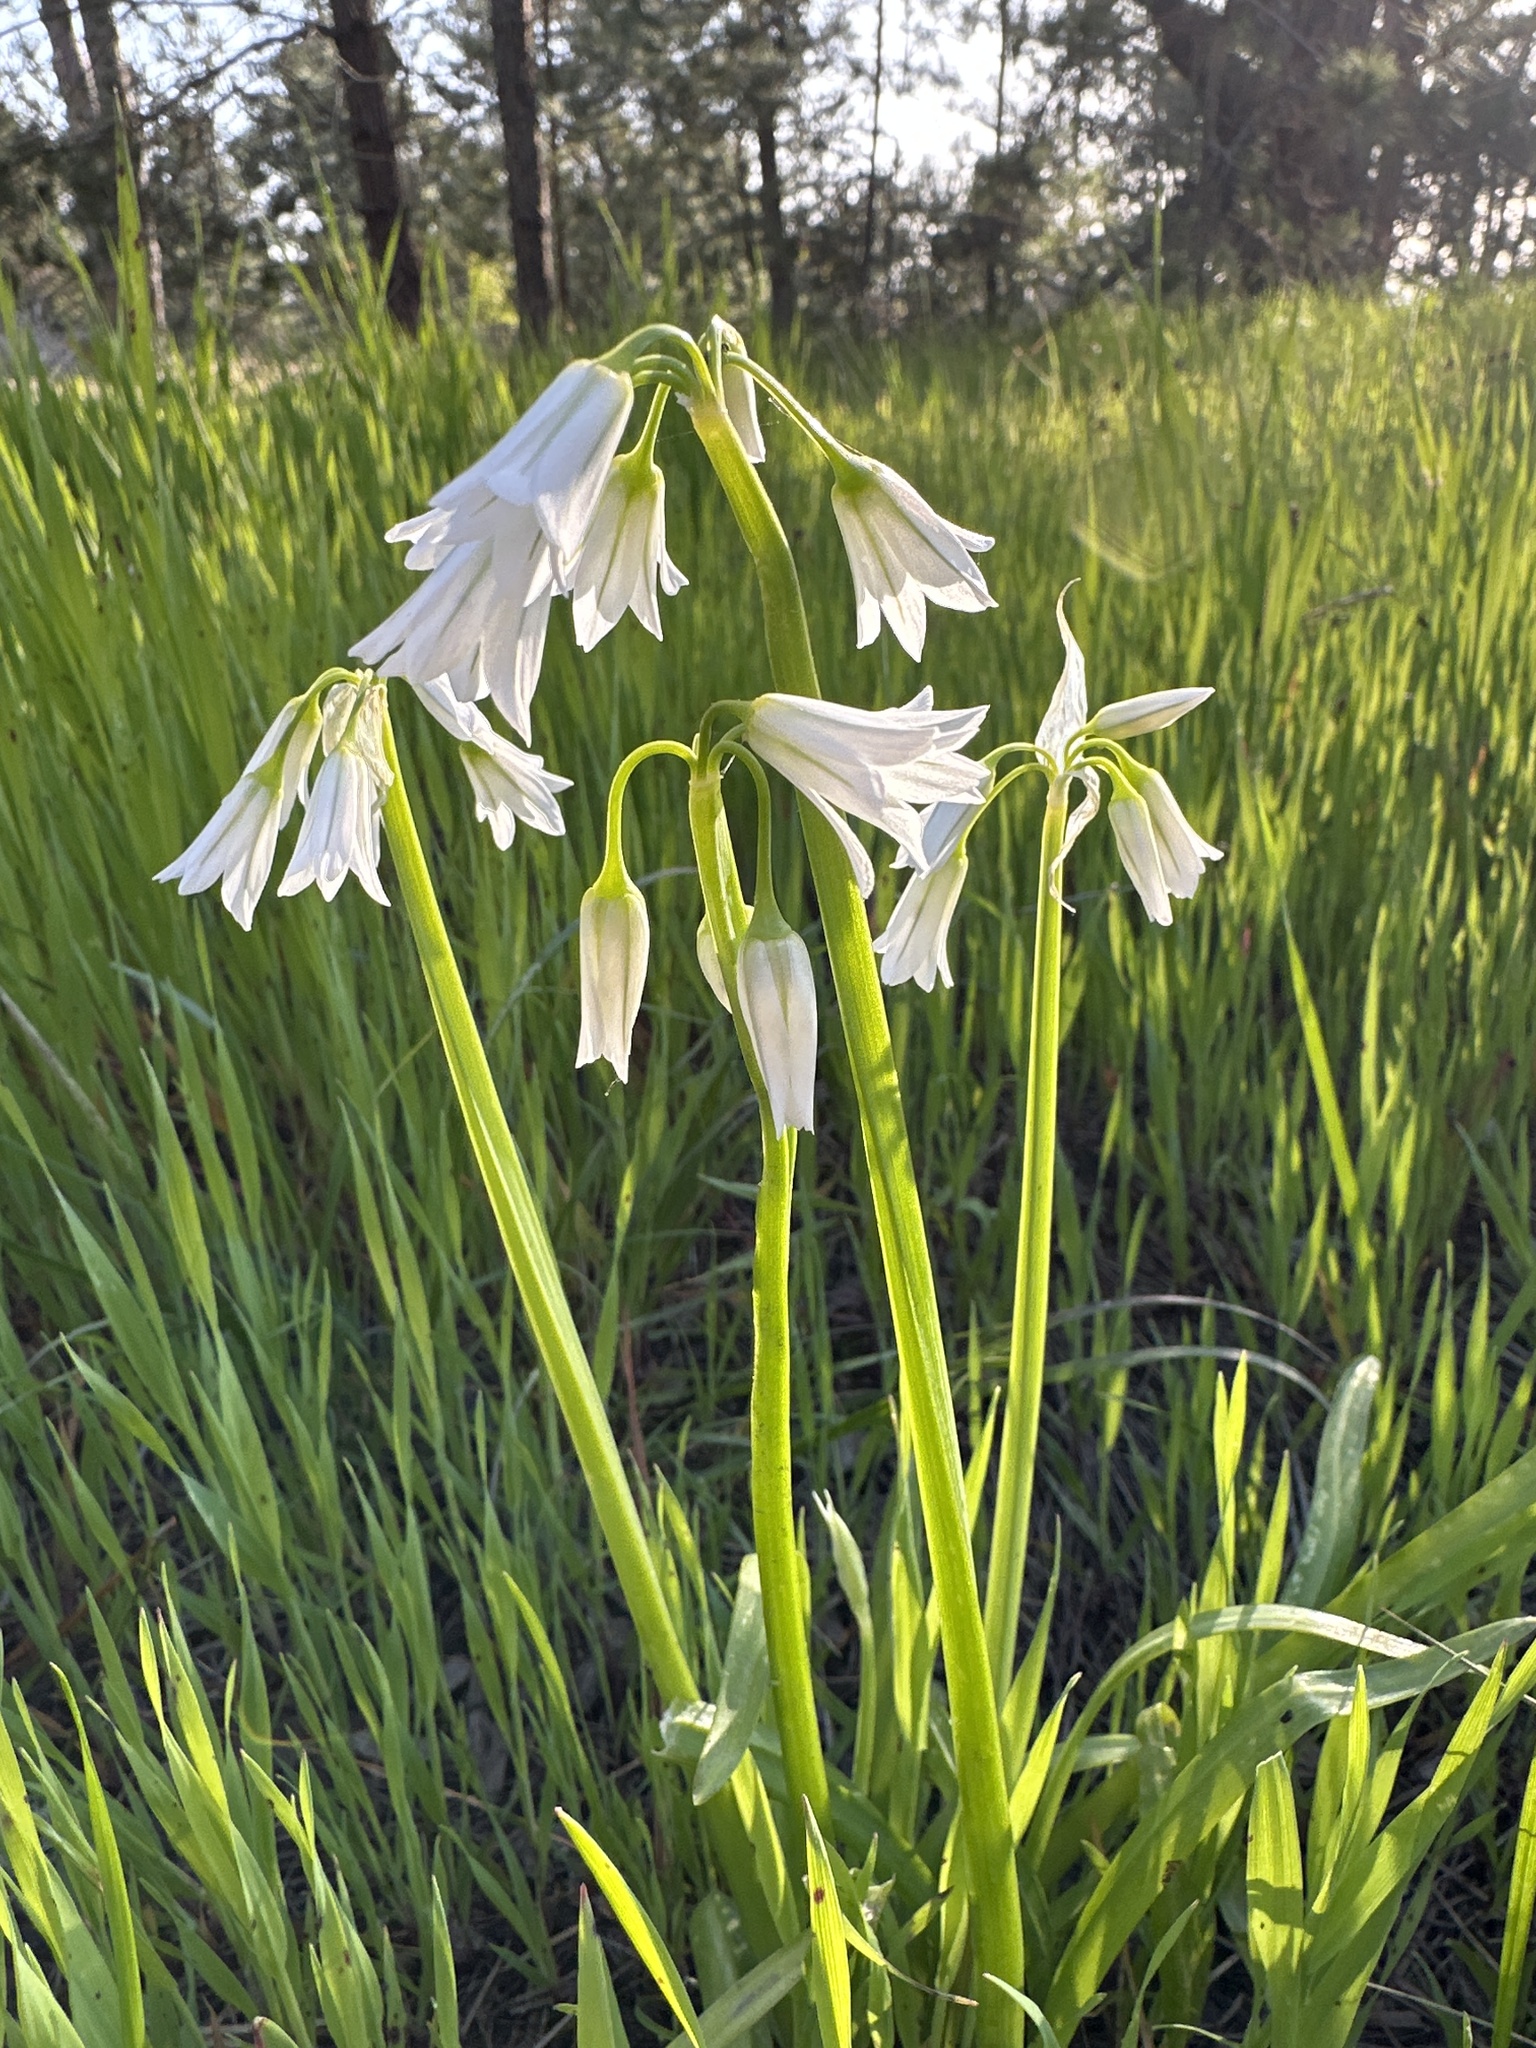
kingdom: Plantae
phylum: Tracheophyta
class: Liliopsida
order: Asparagales
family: Amaryllidaceae
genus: Allium
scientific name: Allium triquetrum
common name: Three-cornered garlic
